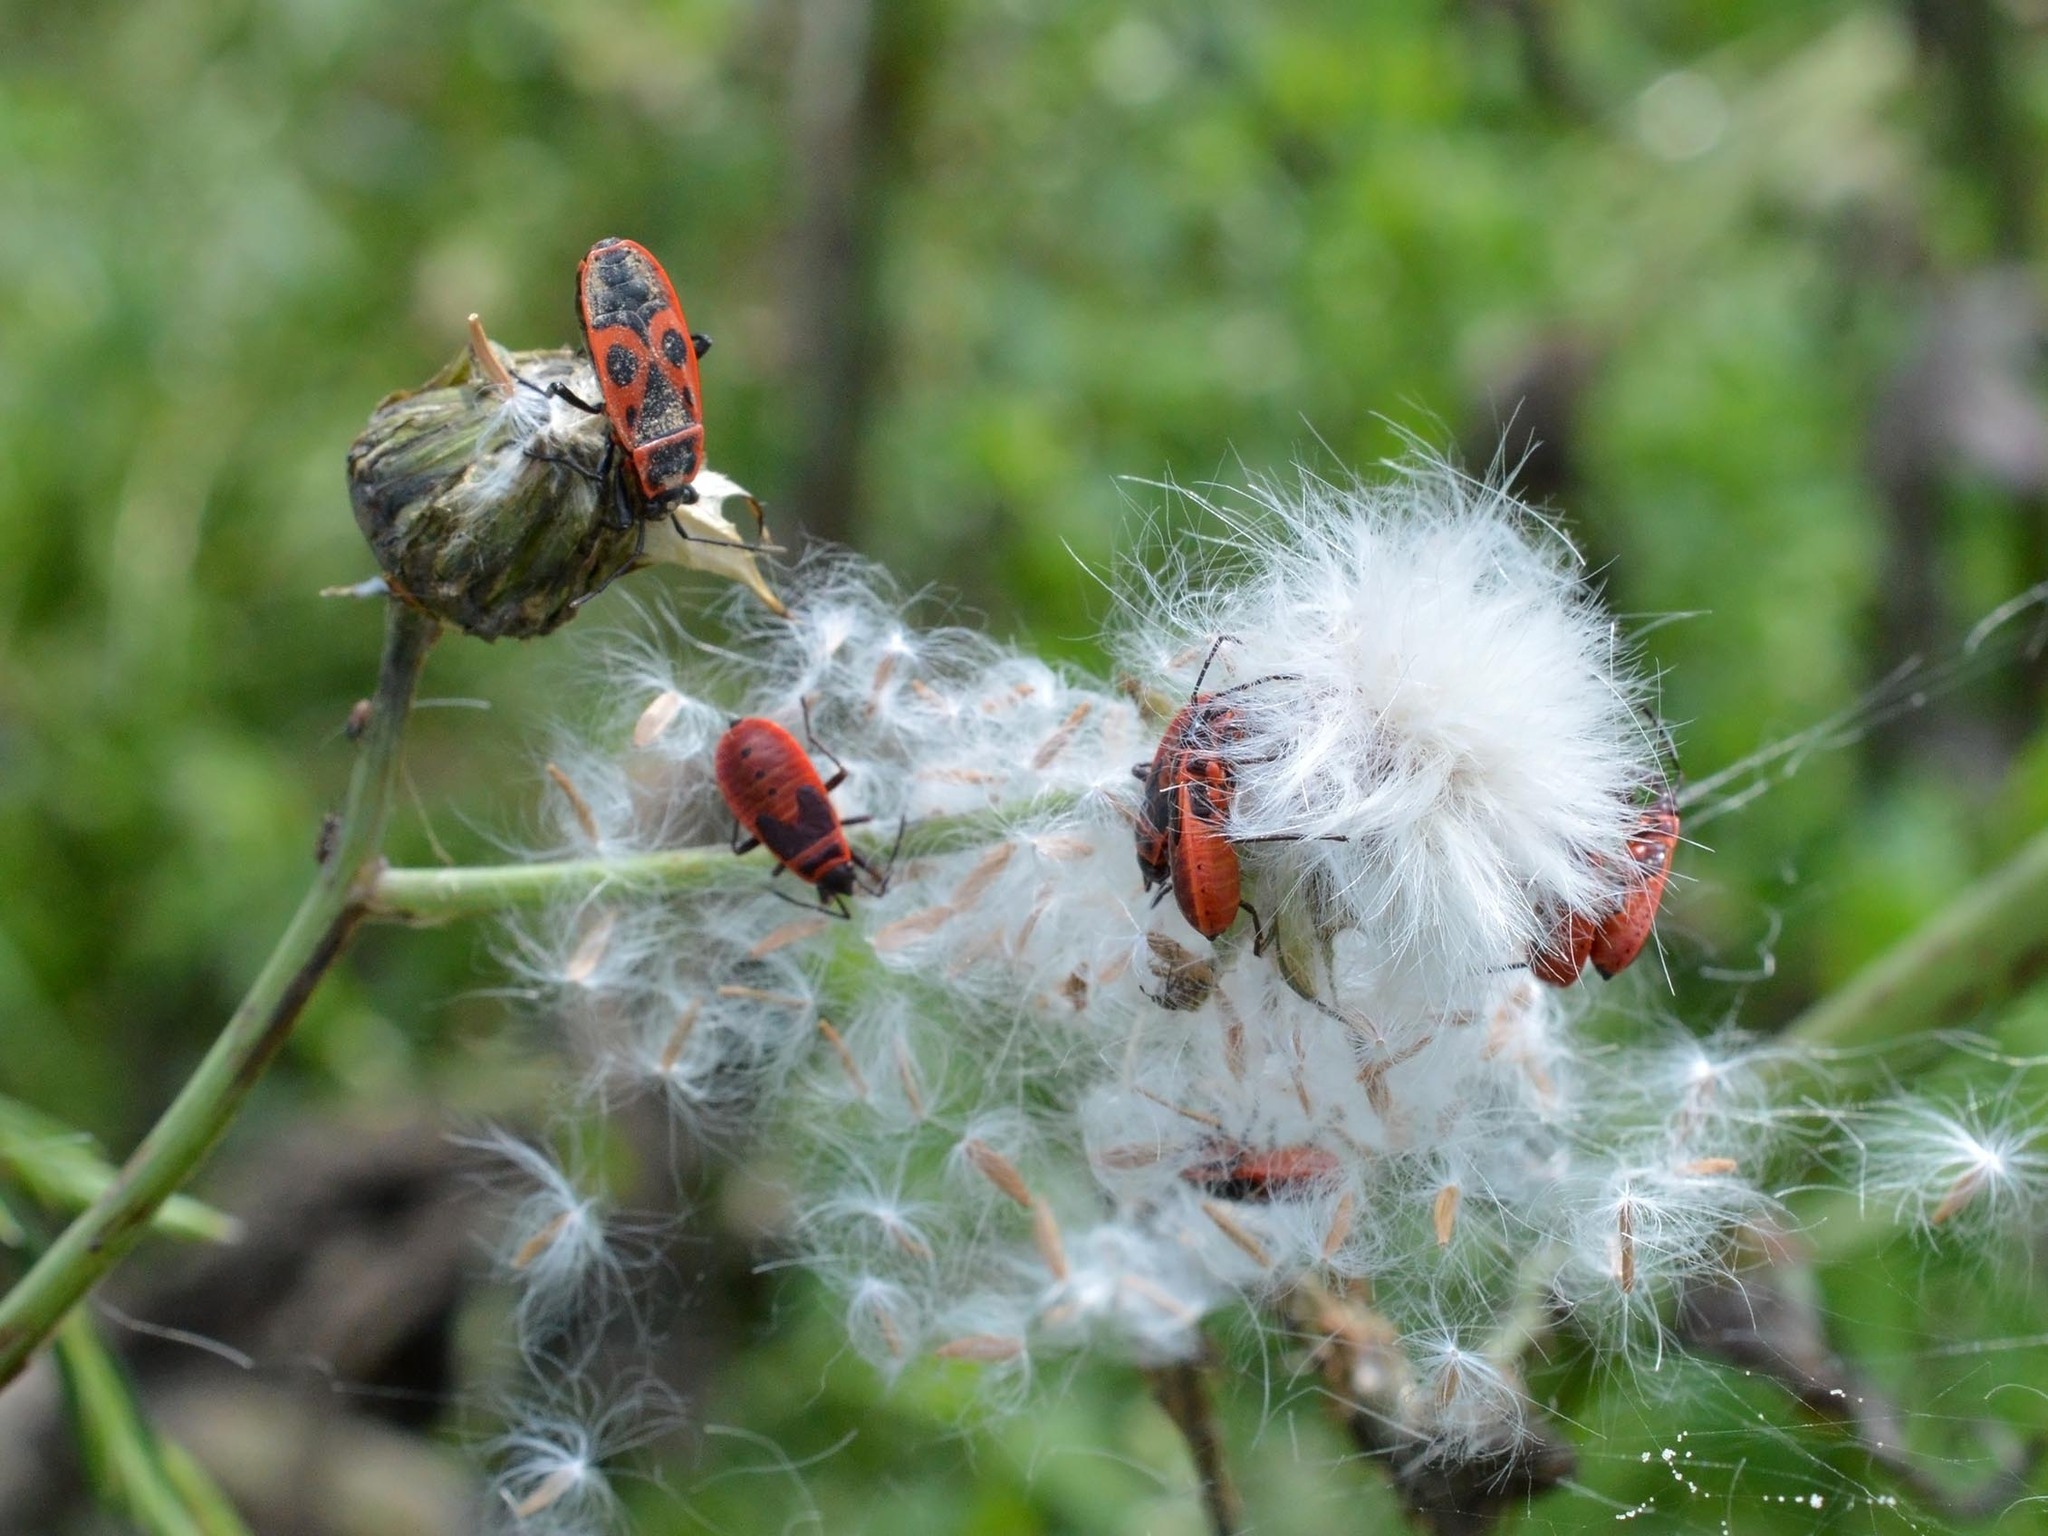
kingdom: Animalia
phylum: Arthropoda
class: Insecta
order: Hemiptera
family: Pyrrhocoridae
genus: Pyrrhocoris
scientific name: Pyrrhocoris apterus
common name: Firebug
